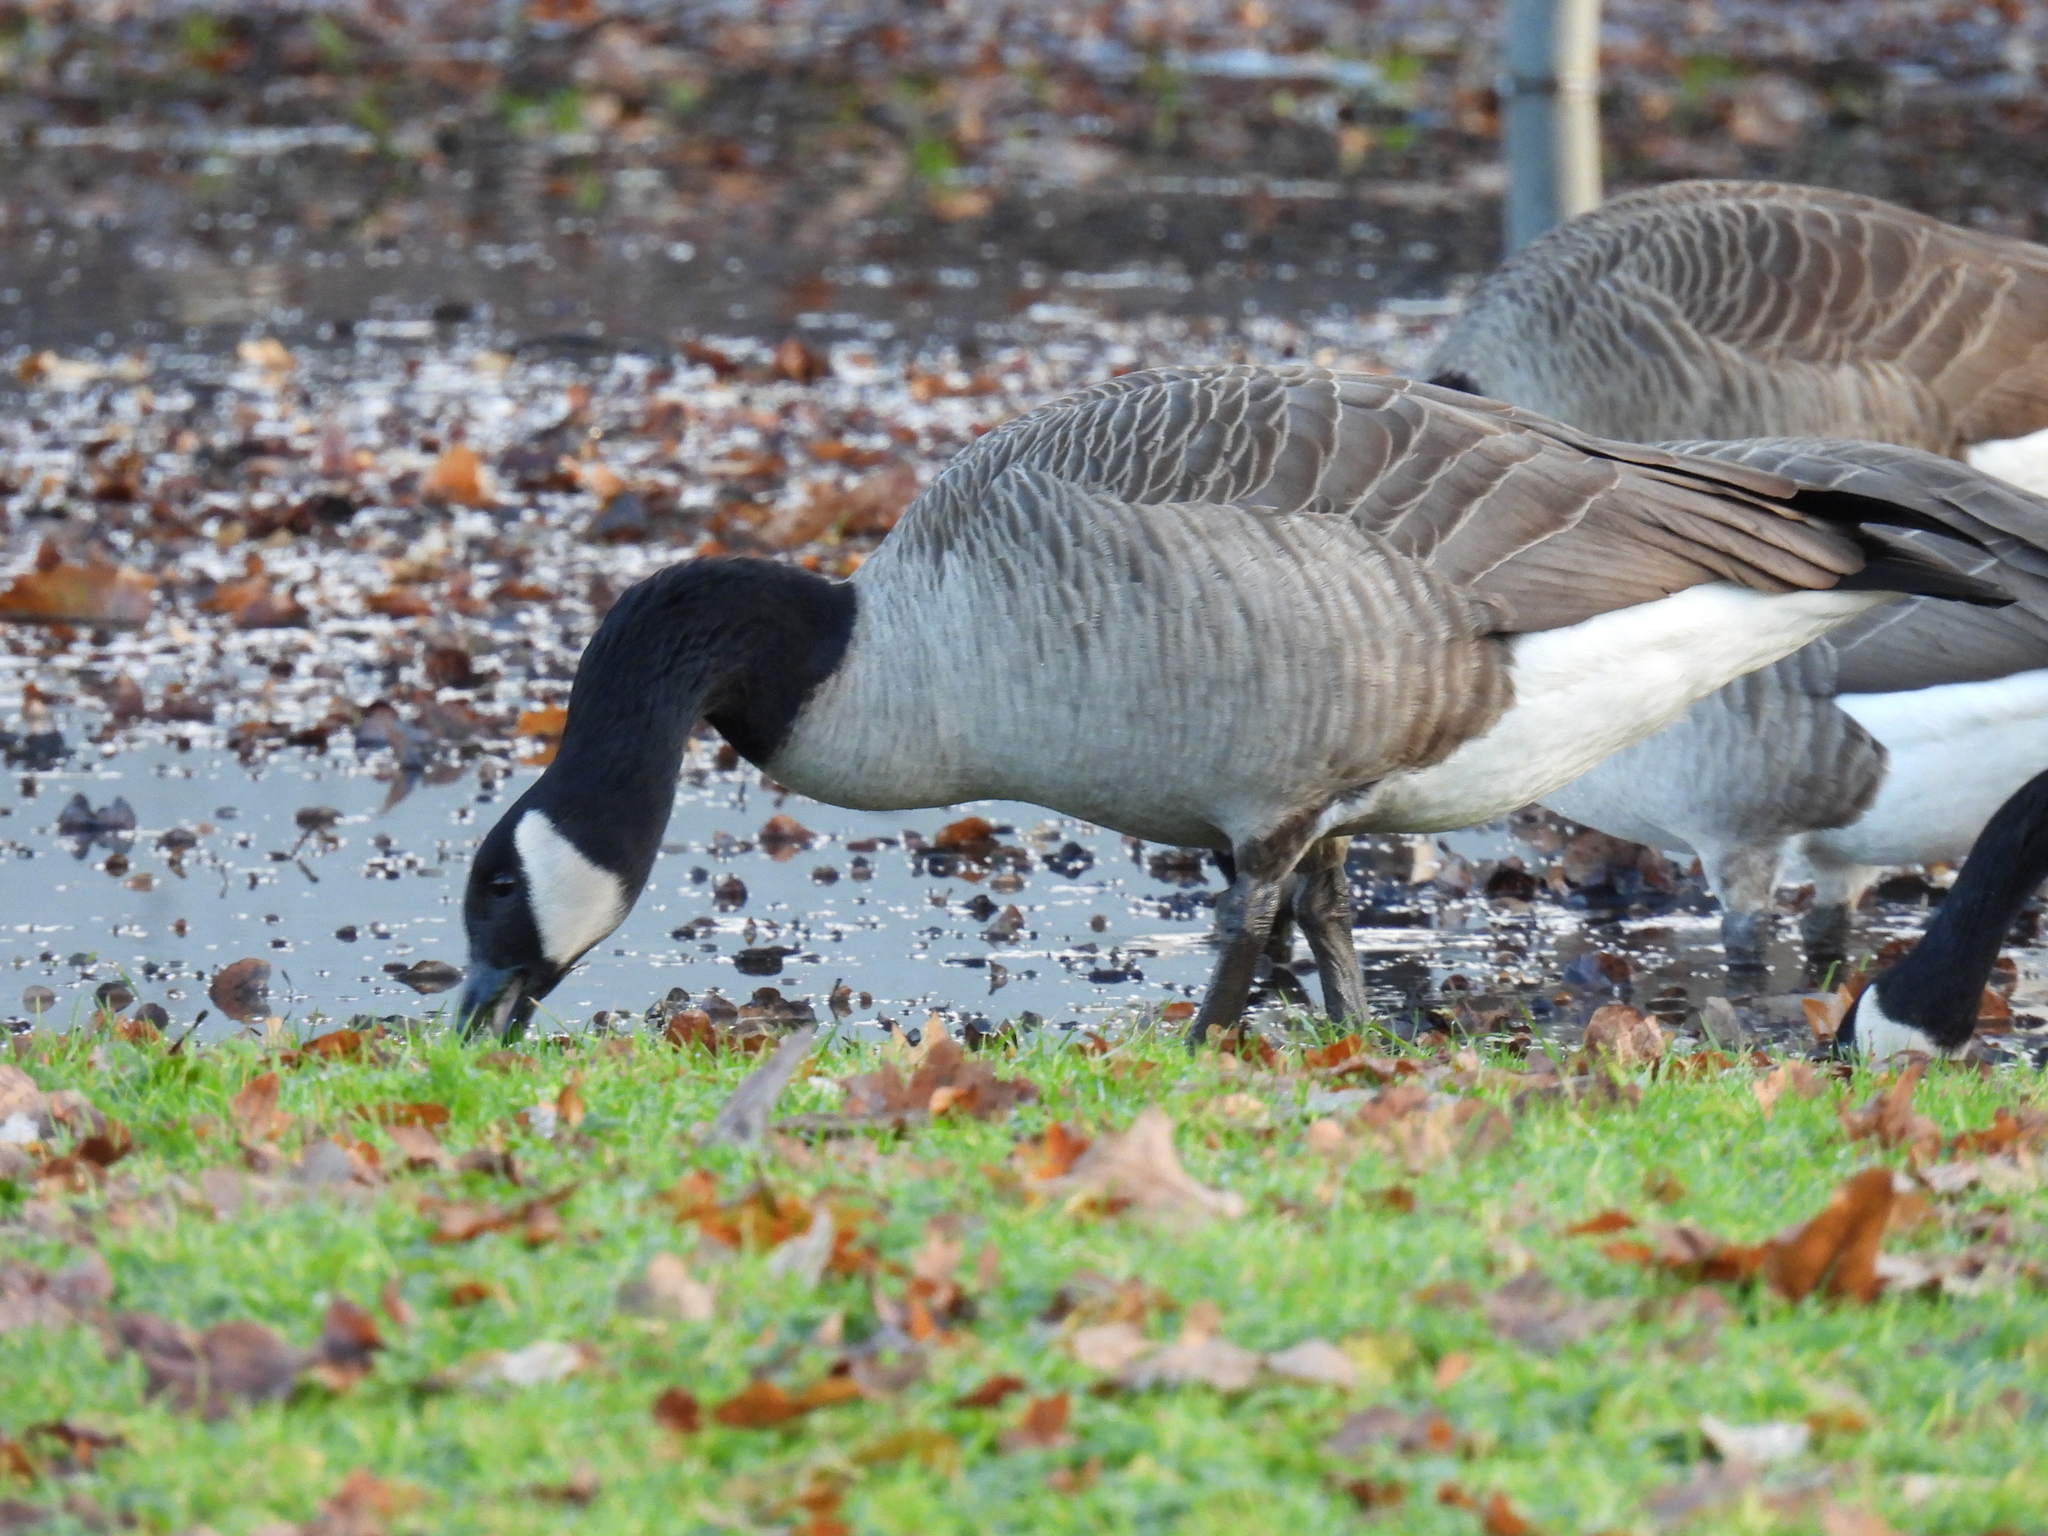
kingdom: Animalia
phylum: Chordata
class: Aves
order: Anseriformes
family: Anatidae
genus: Branta
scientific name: Branta canadensis
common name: Canada goose
